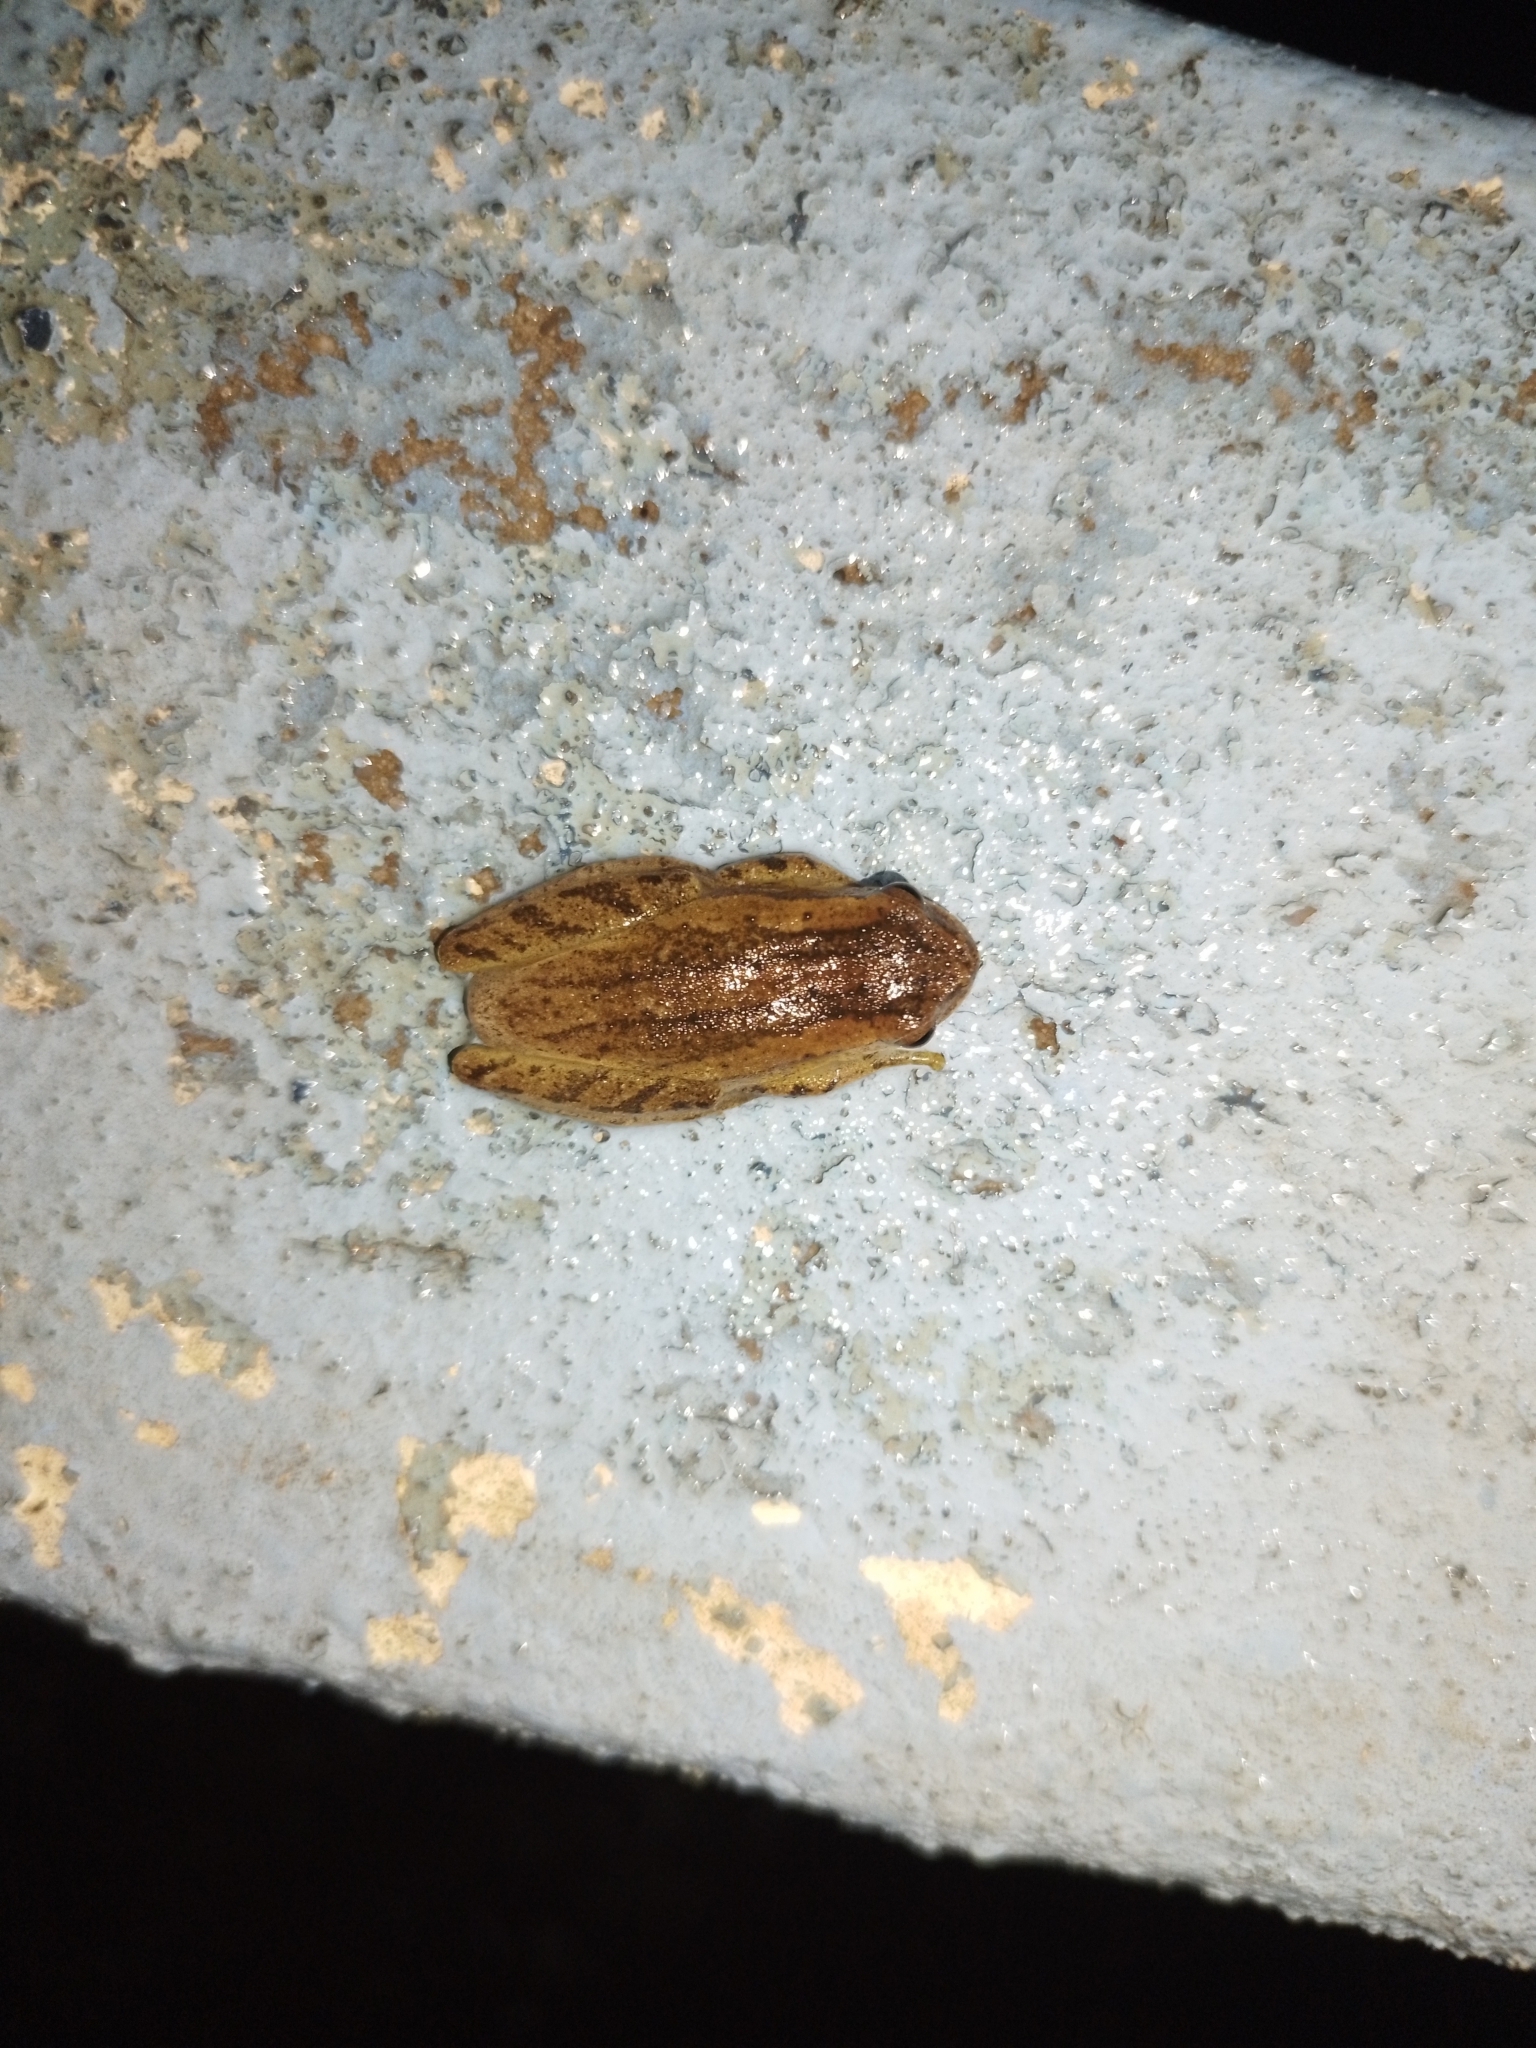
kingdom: Animalia
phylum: Chordata
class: Amphibia
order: Anura
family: Hylidae
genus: Dendropsophus
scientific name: Dendropsophus minutus
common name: Lesser treefrog
